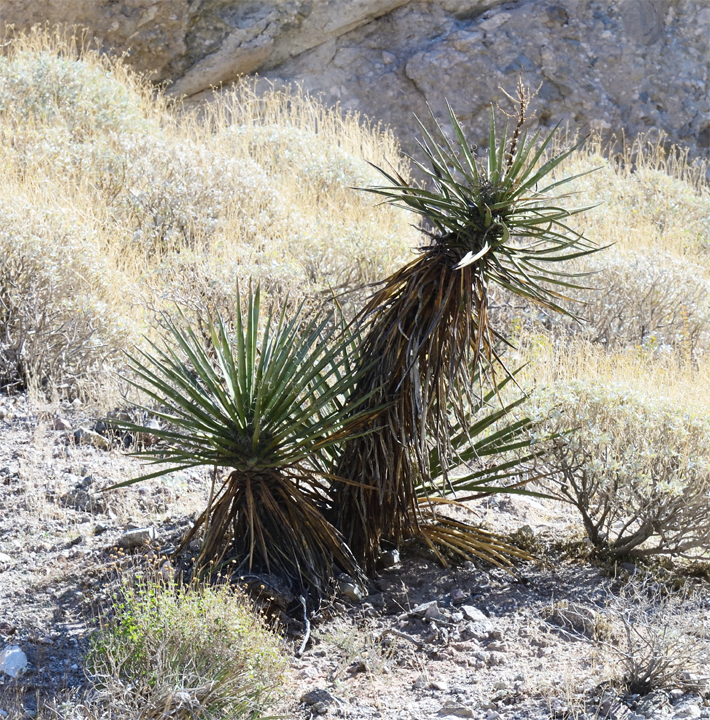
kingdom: Plantae
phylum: Tracheophyta
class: Liliopsida
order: Asparagales
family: Asparagaceae
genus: Yucca
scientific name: Yucca schidigera
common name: Mojave yucca
